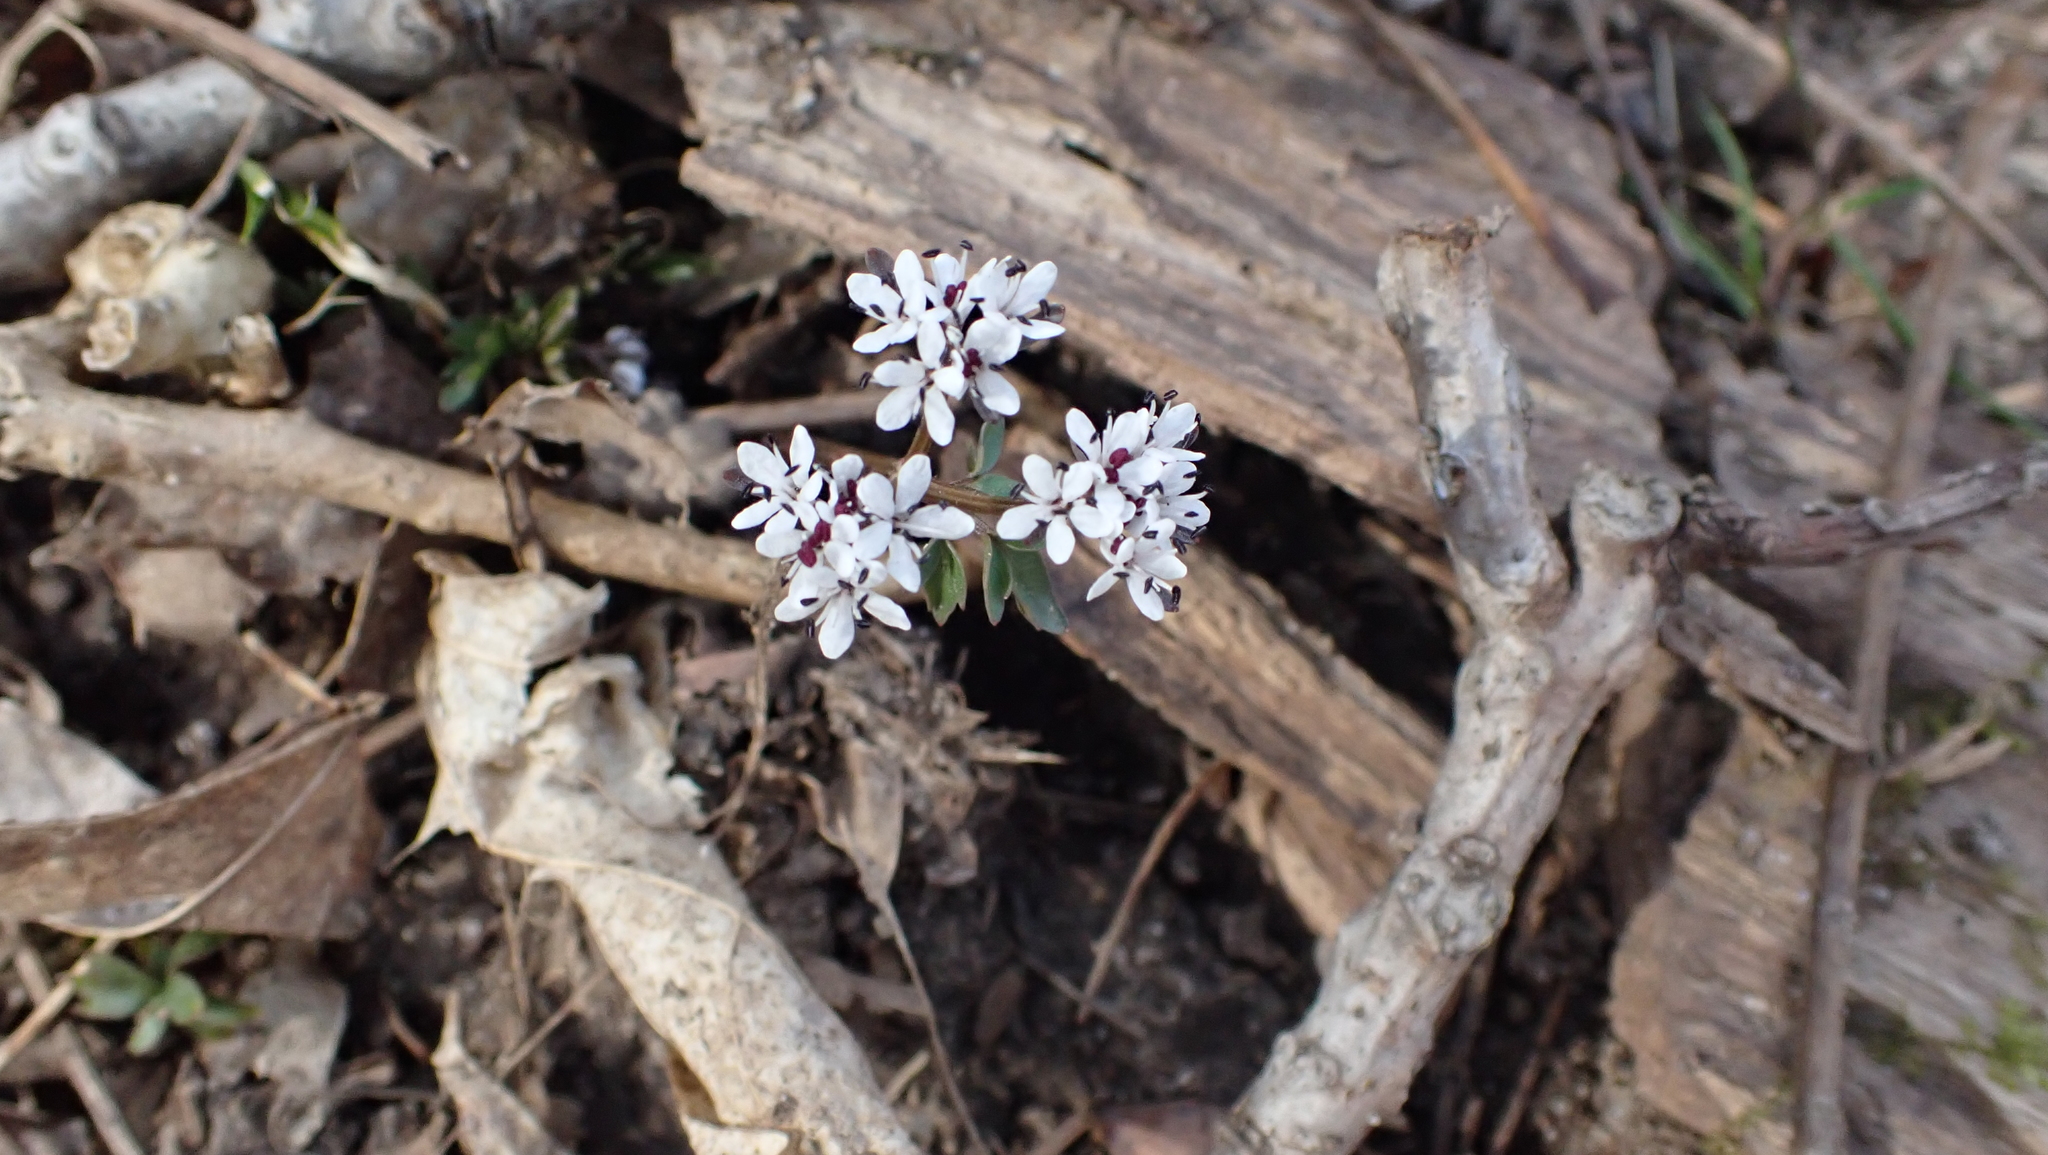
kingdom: Plantae
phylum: Tracheophyta
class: Magnoliopsida
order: Apiales
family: Apiaceae
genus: Erigenia
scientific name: Erigenia bulbosa
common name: Pepper-and-salt
